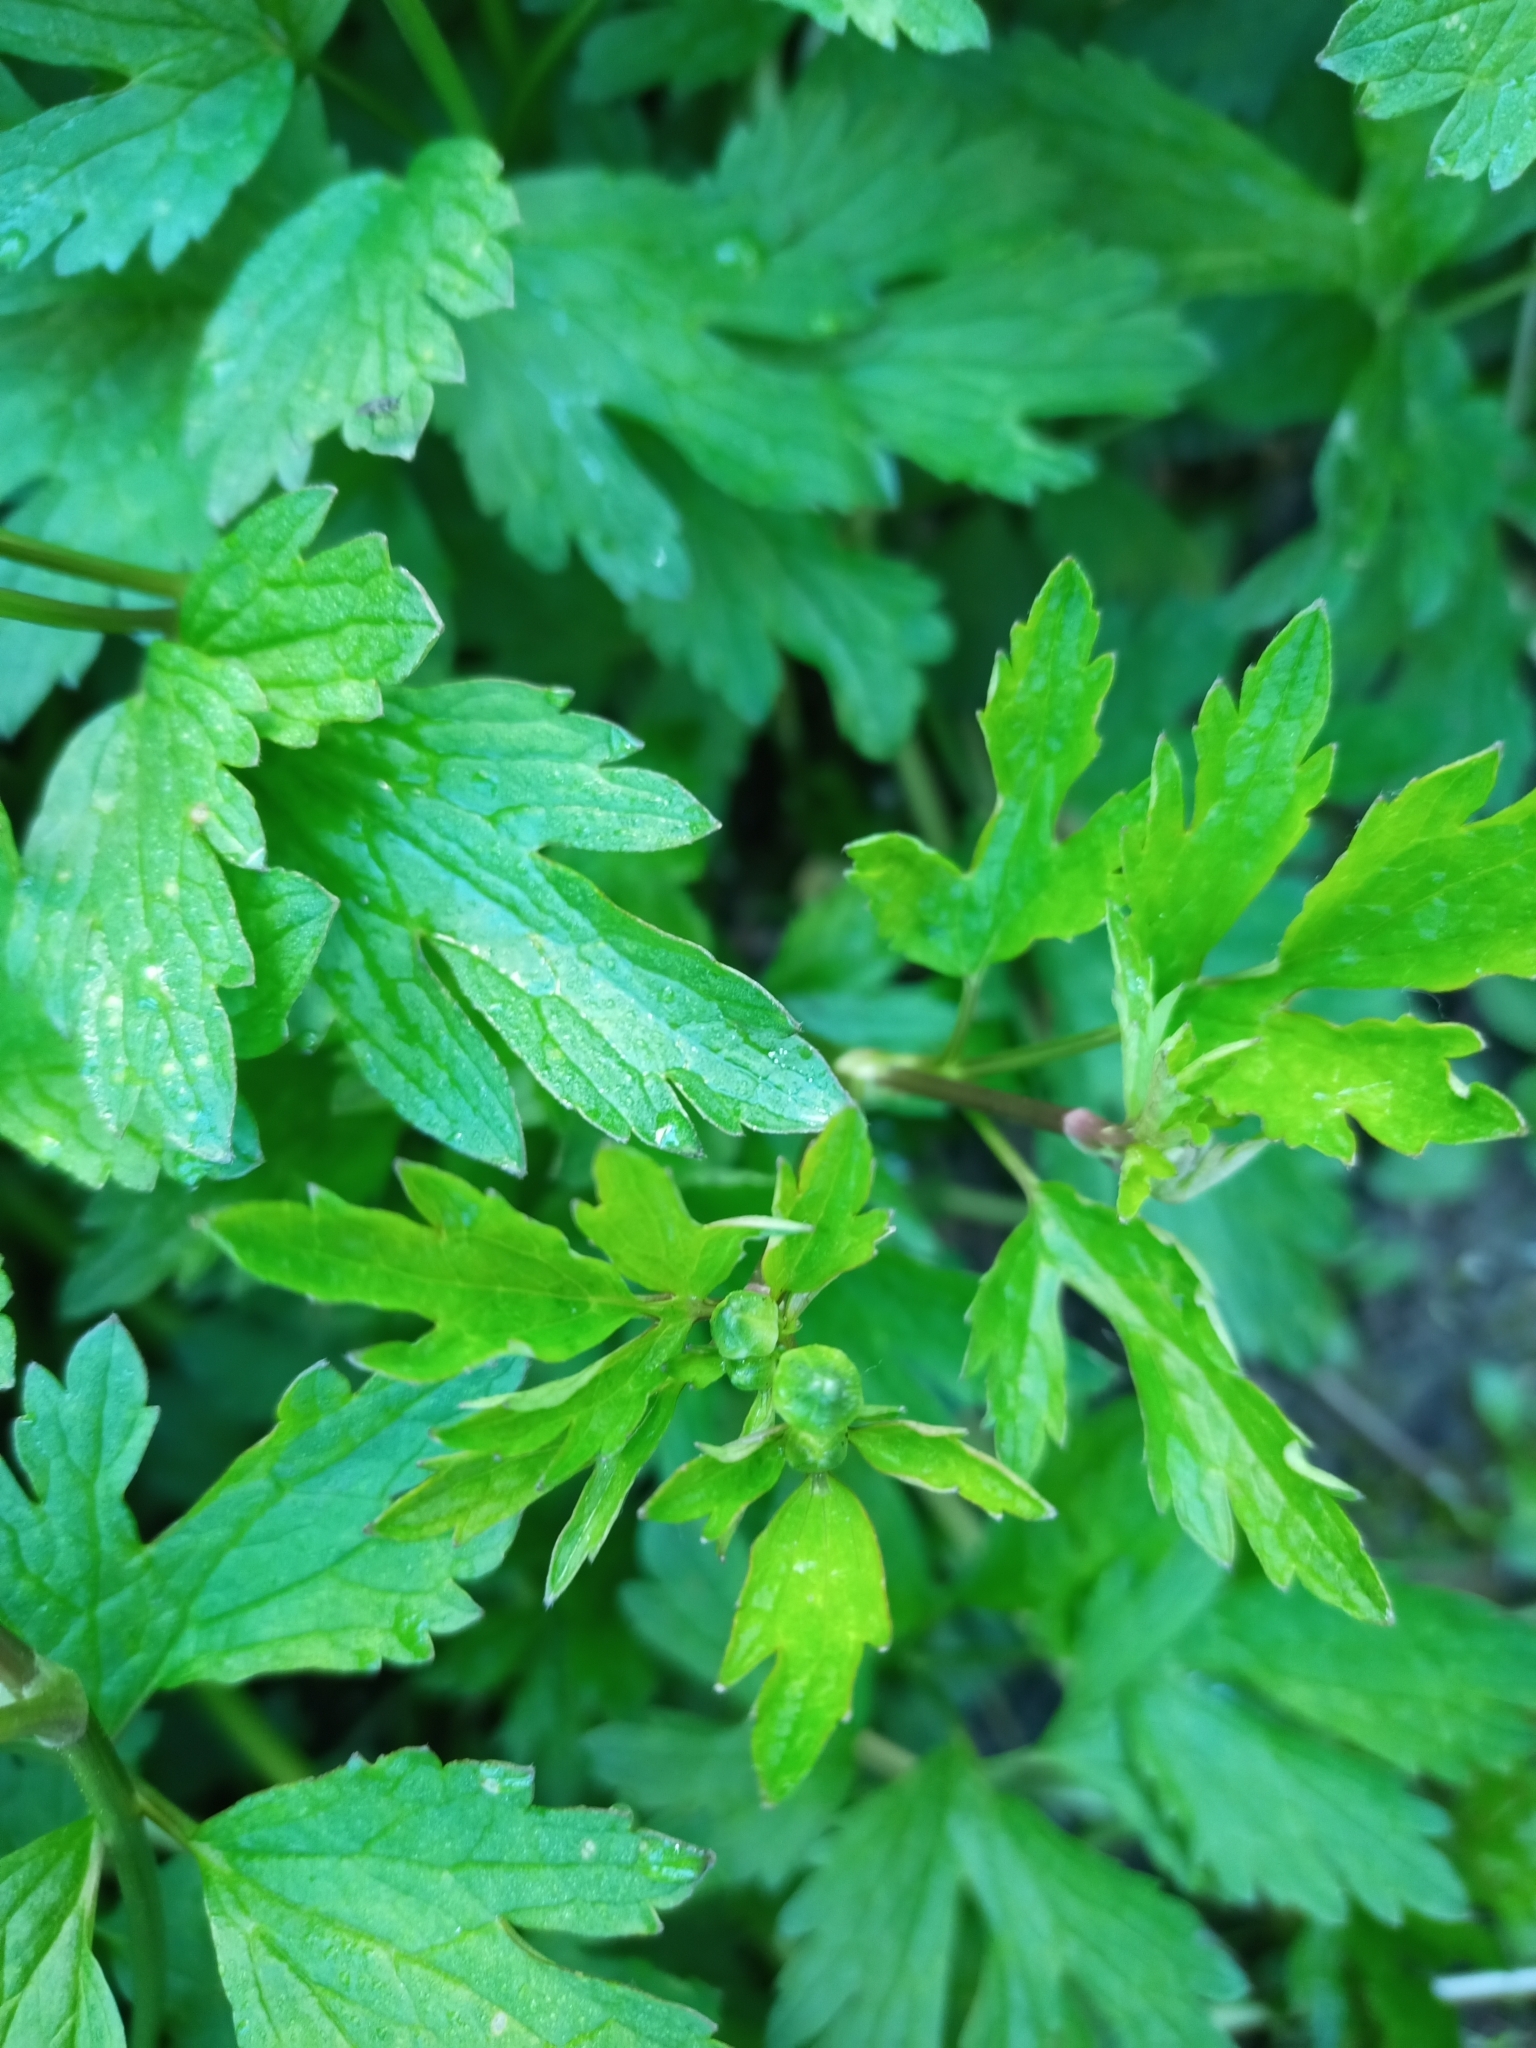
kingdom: Plantae
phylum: Tracheophyta
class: Magnoliopsida
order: Ranunculales
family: Ranunculaceae
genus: Ranunculus
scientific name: Ranunculus repens
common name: Creeping buttercup
